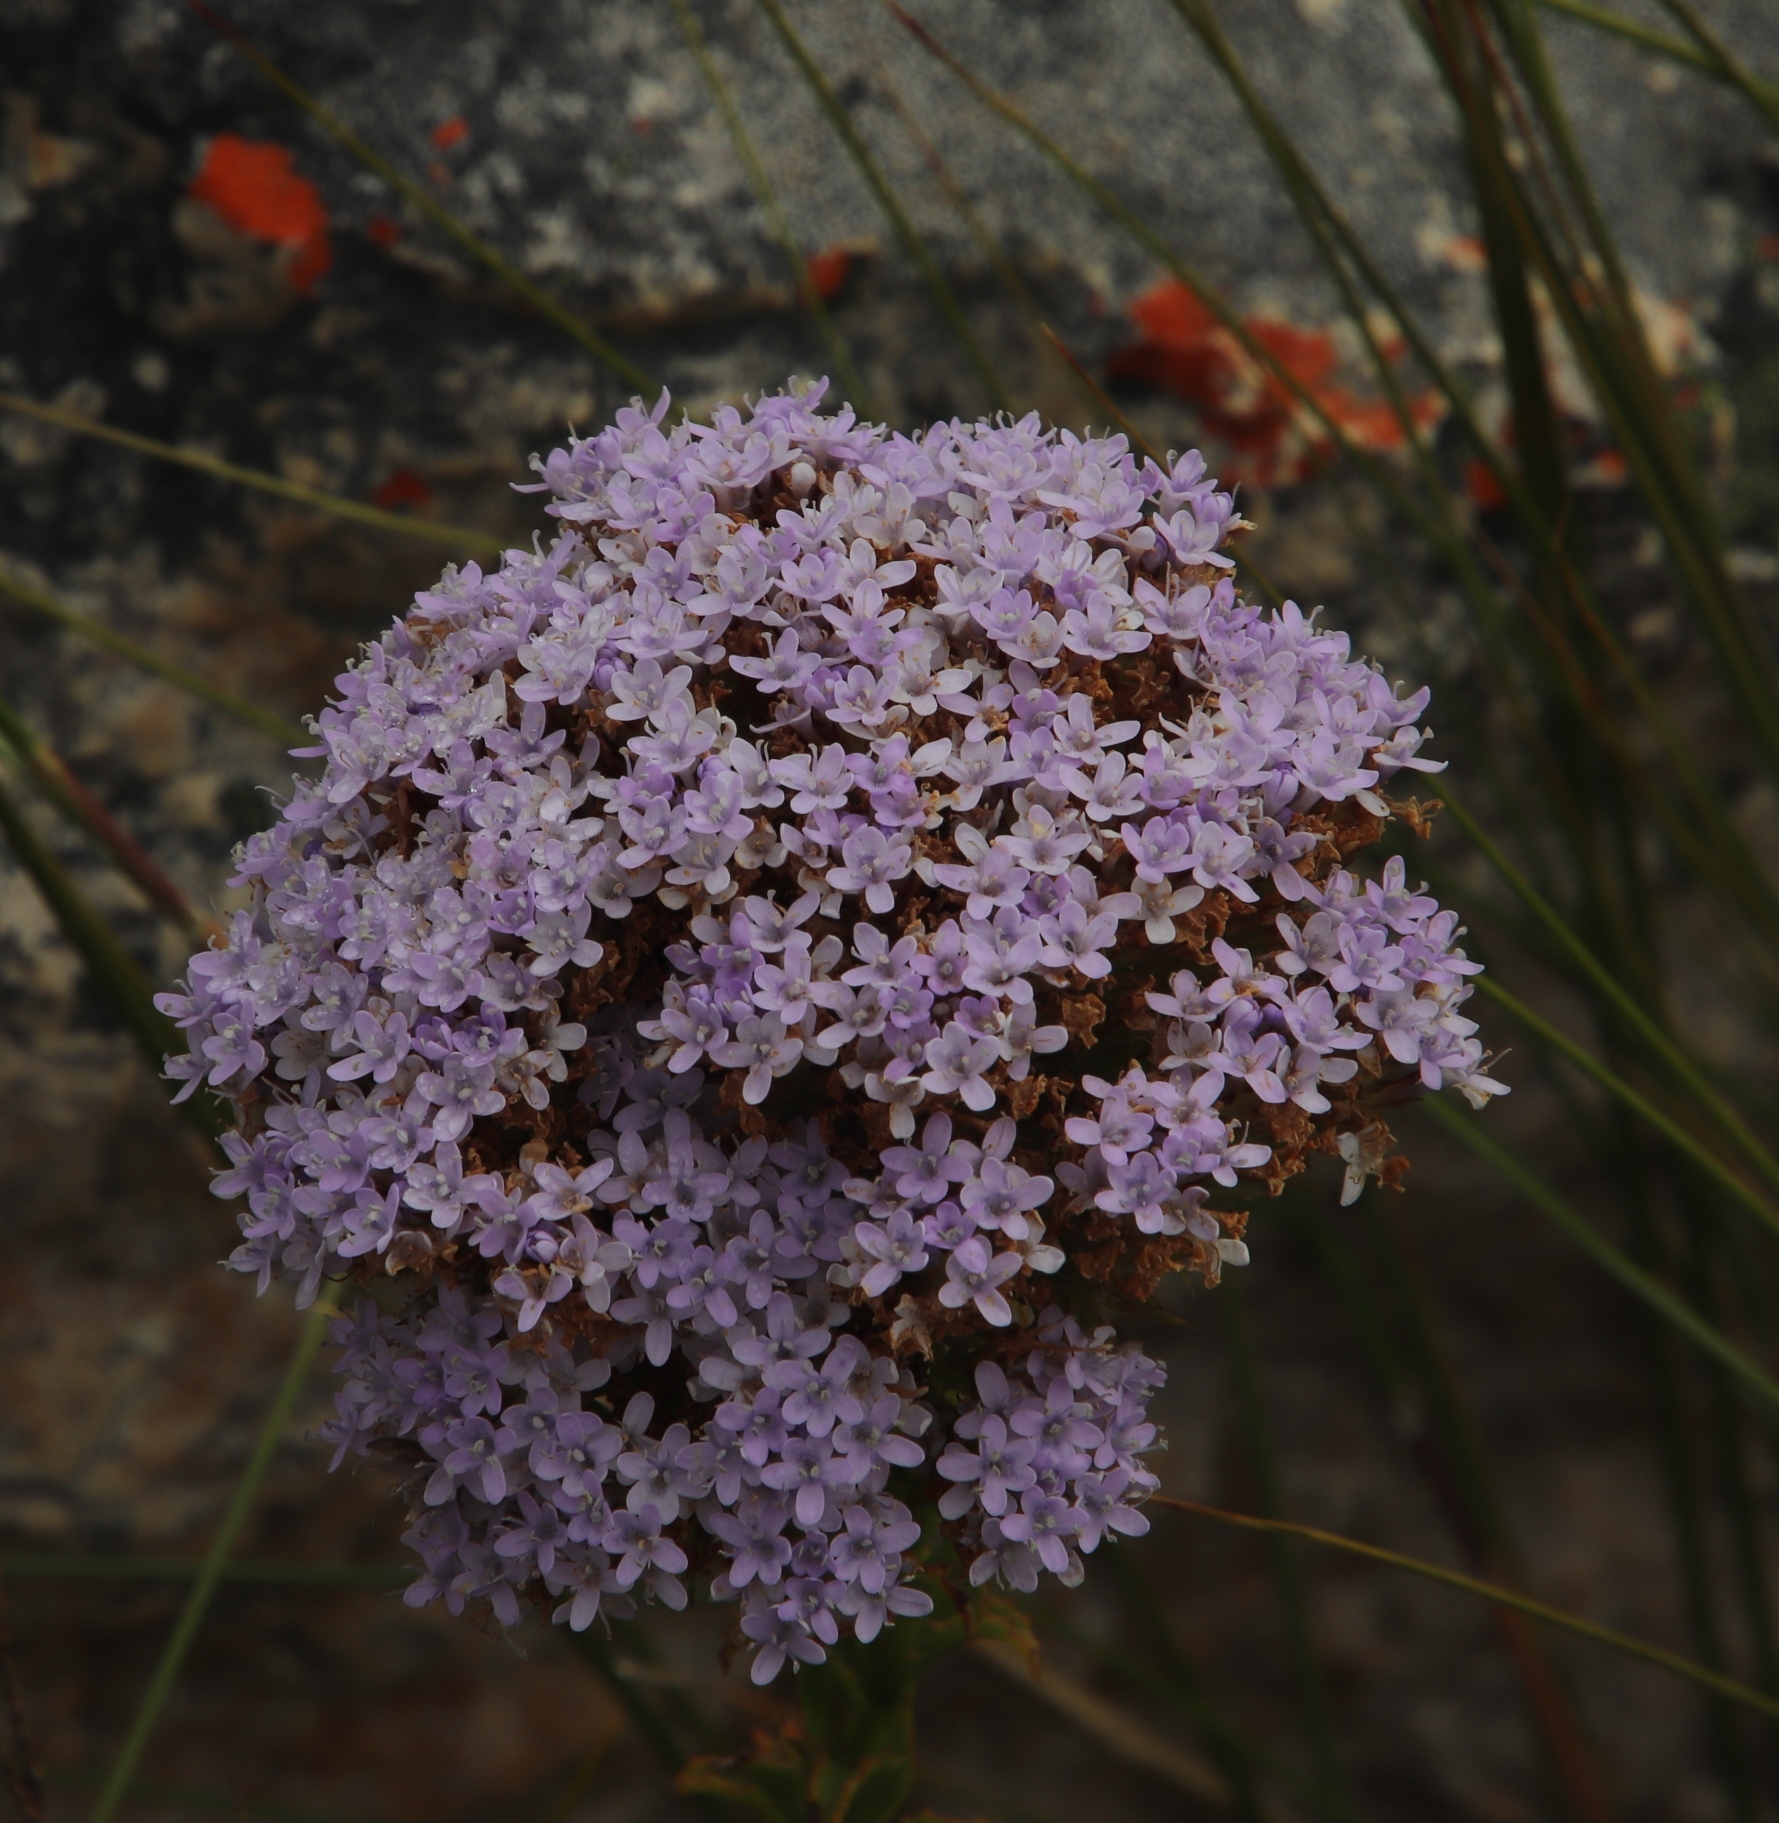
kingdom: Plantae
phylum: Tracheophyta
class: Magnoliopsida
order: Lamiales
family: Scrophulariaceae
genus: Pseudoselago
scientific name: Pseudoselago serrata
